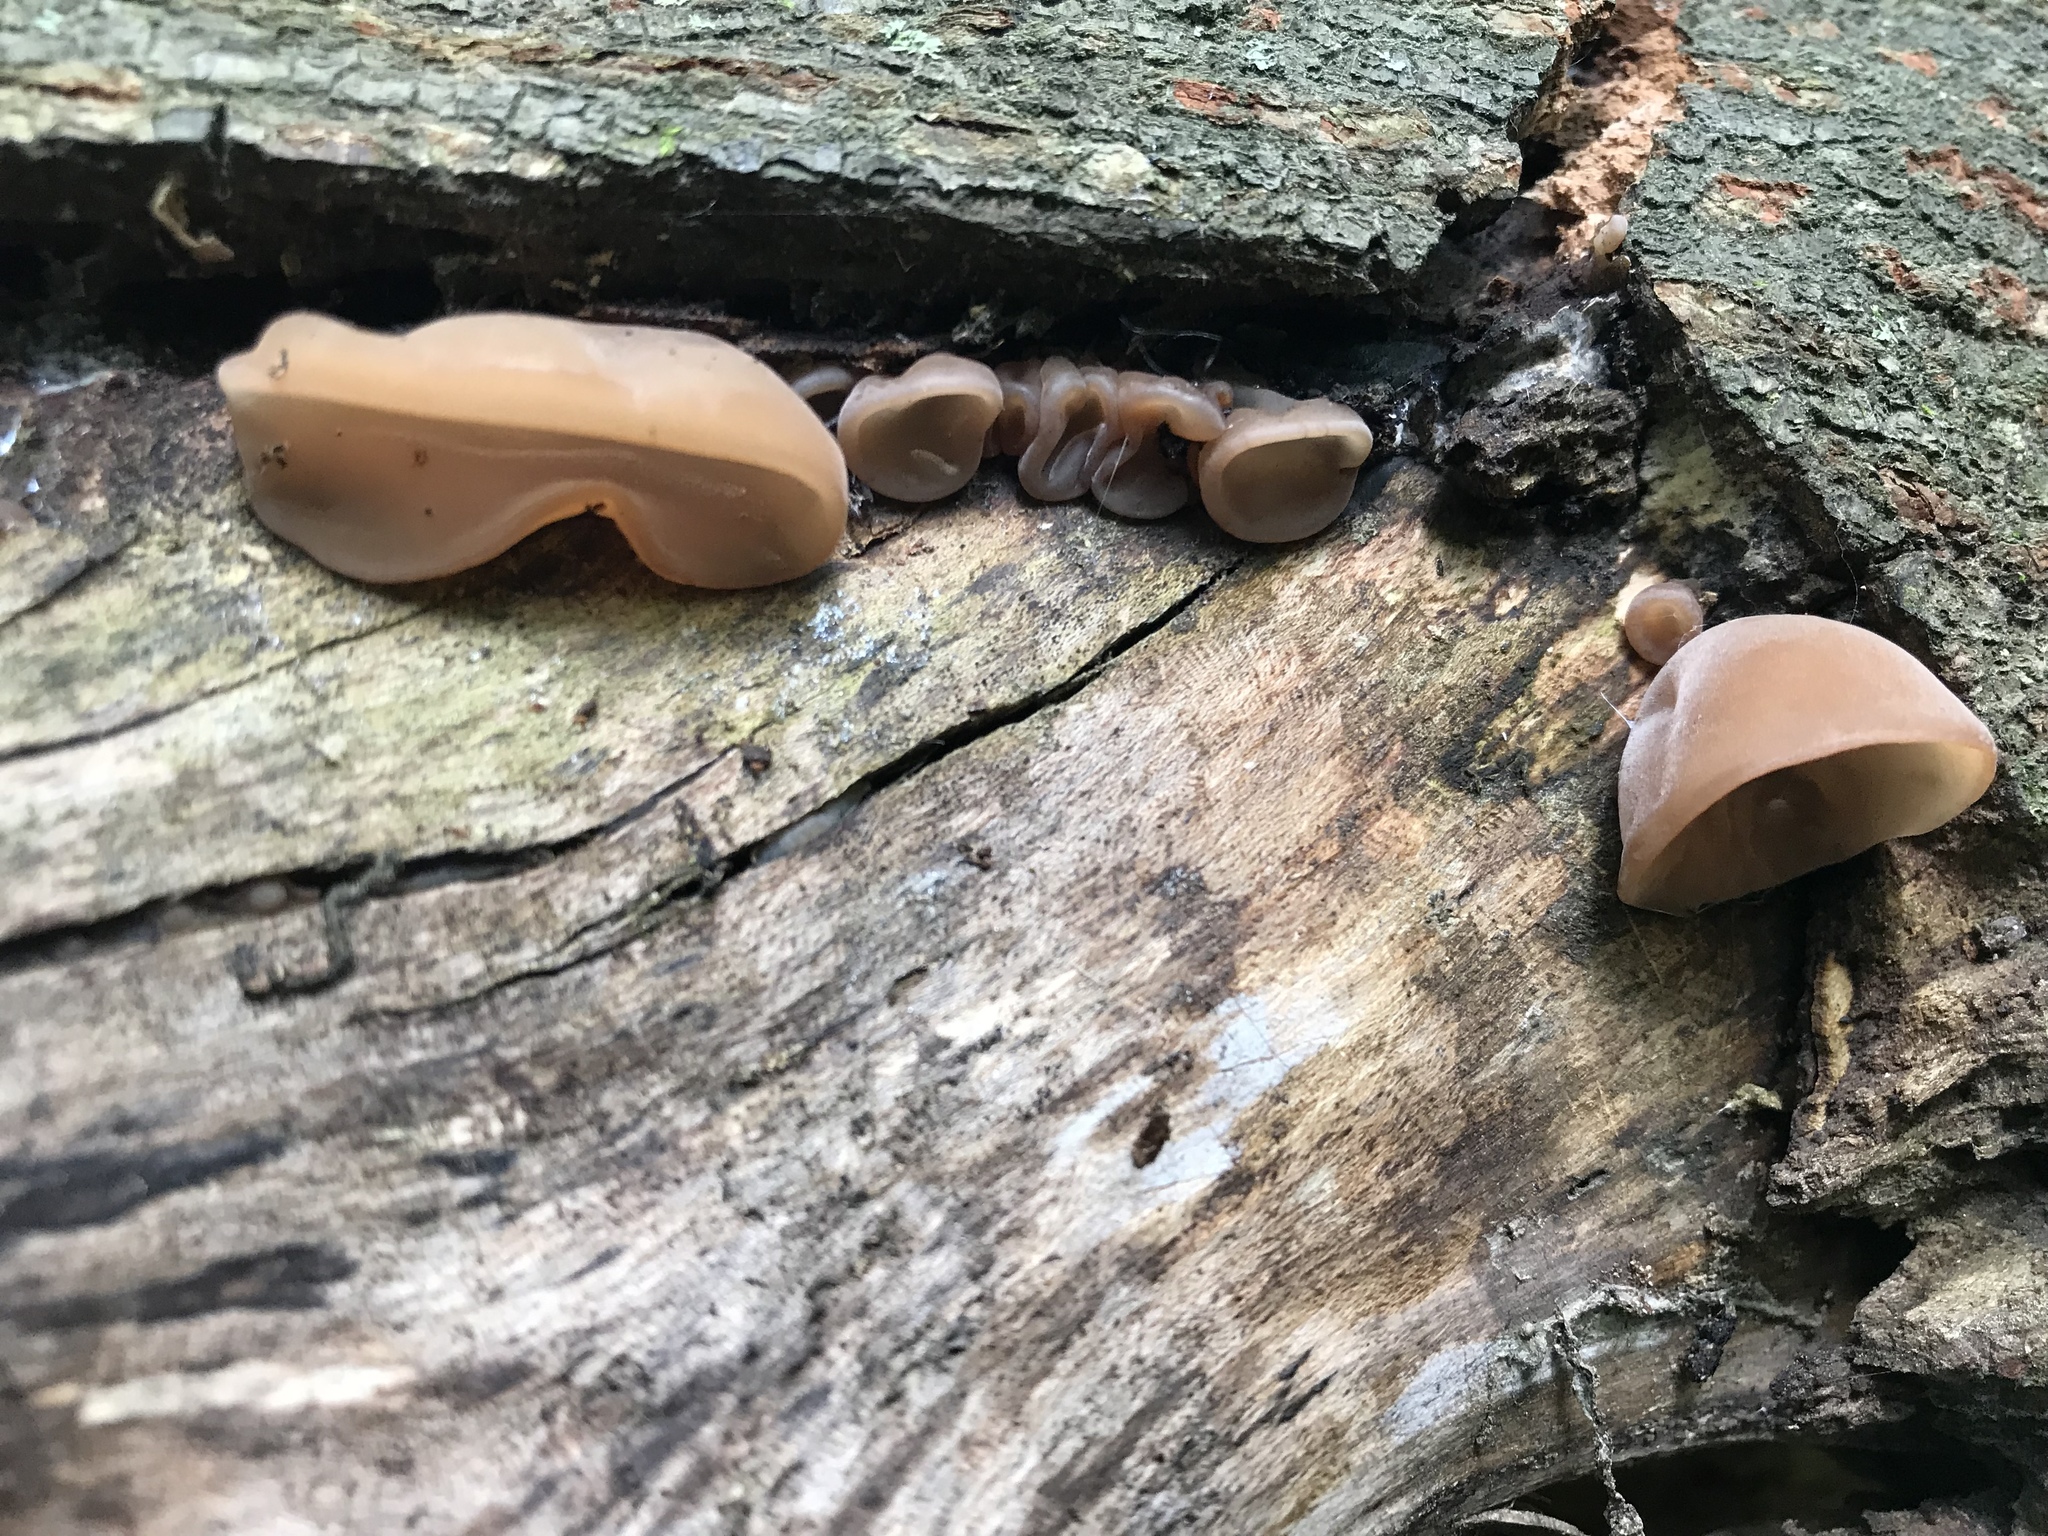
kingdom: Fungi
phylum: Basidiomycota
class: Agaricomycetes
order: Auriculariales
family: Auriculariaceae
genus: Auricularia
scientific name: Auricularia angiospermarum
